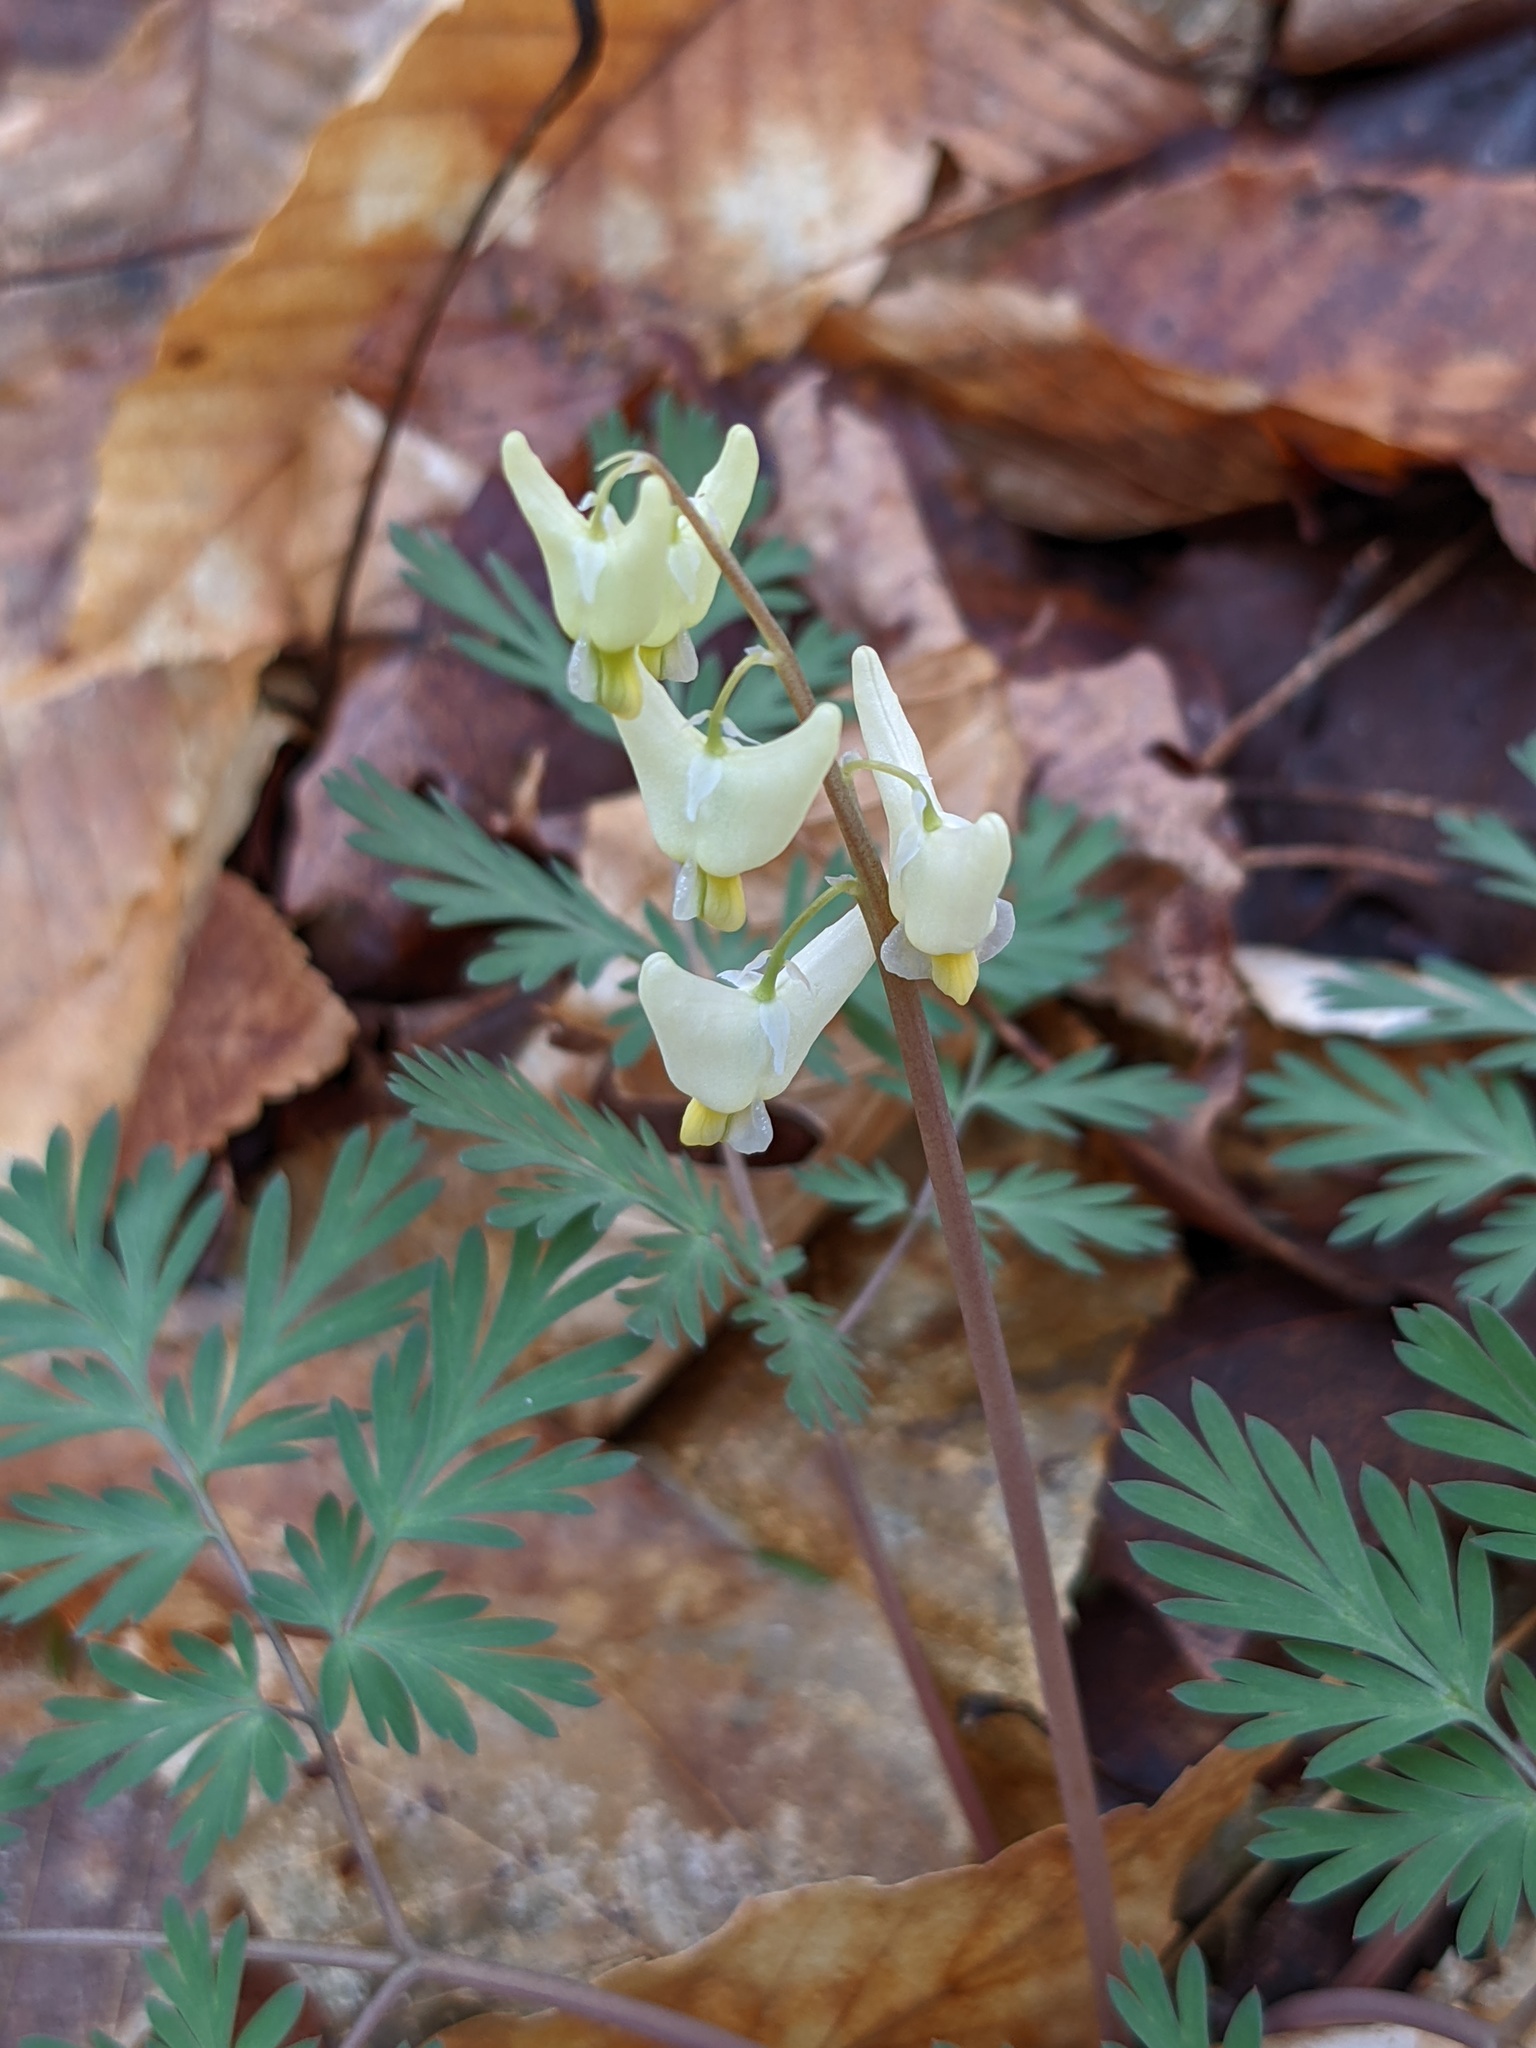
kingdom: Plantae
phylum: Tracheophyta
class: Magnoliopsida
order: Ranunculales
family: Papaveraceae
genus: Dicentra
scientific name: Dicentra cucullaria
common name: Dutchman's breeches
